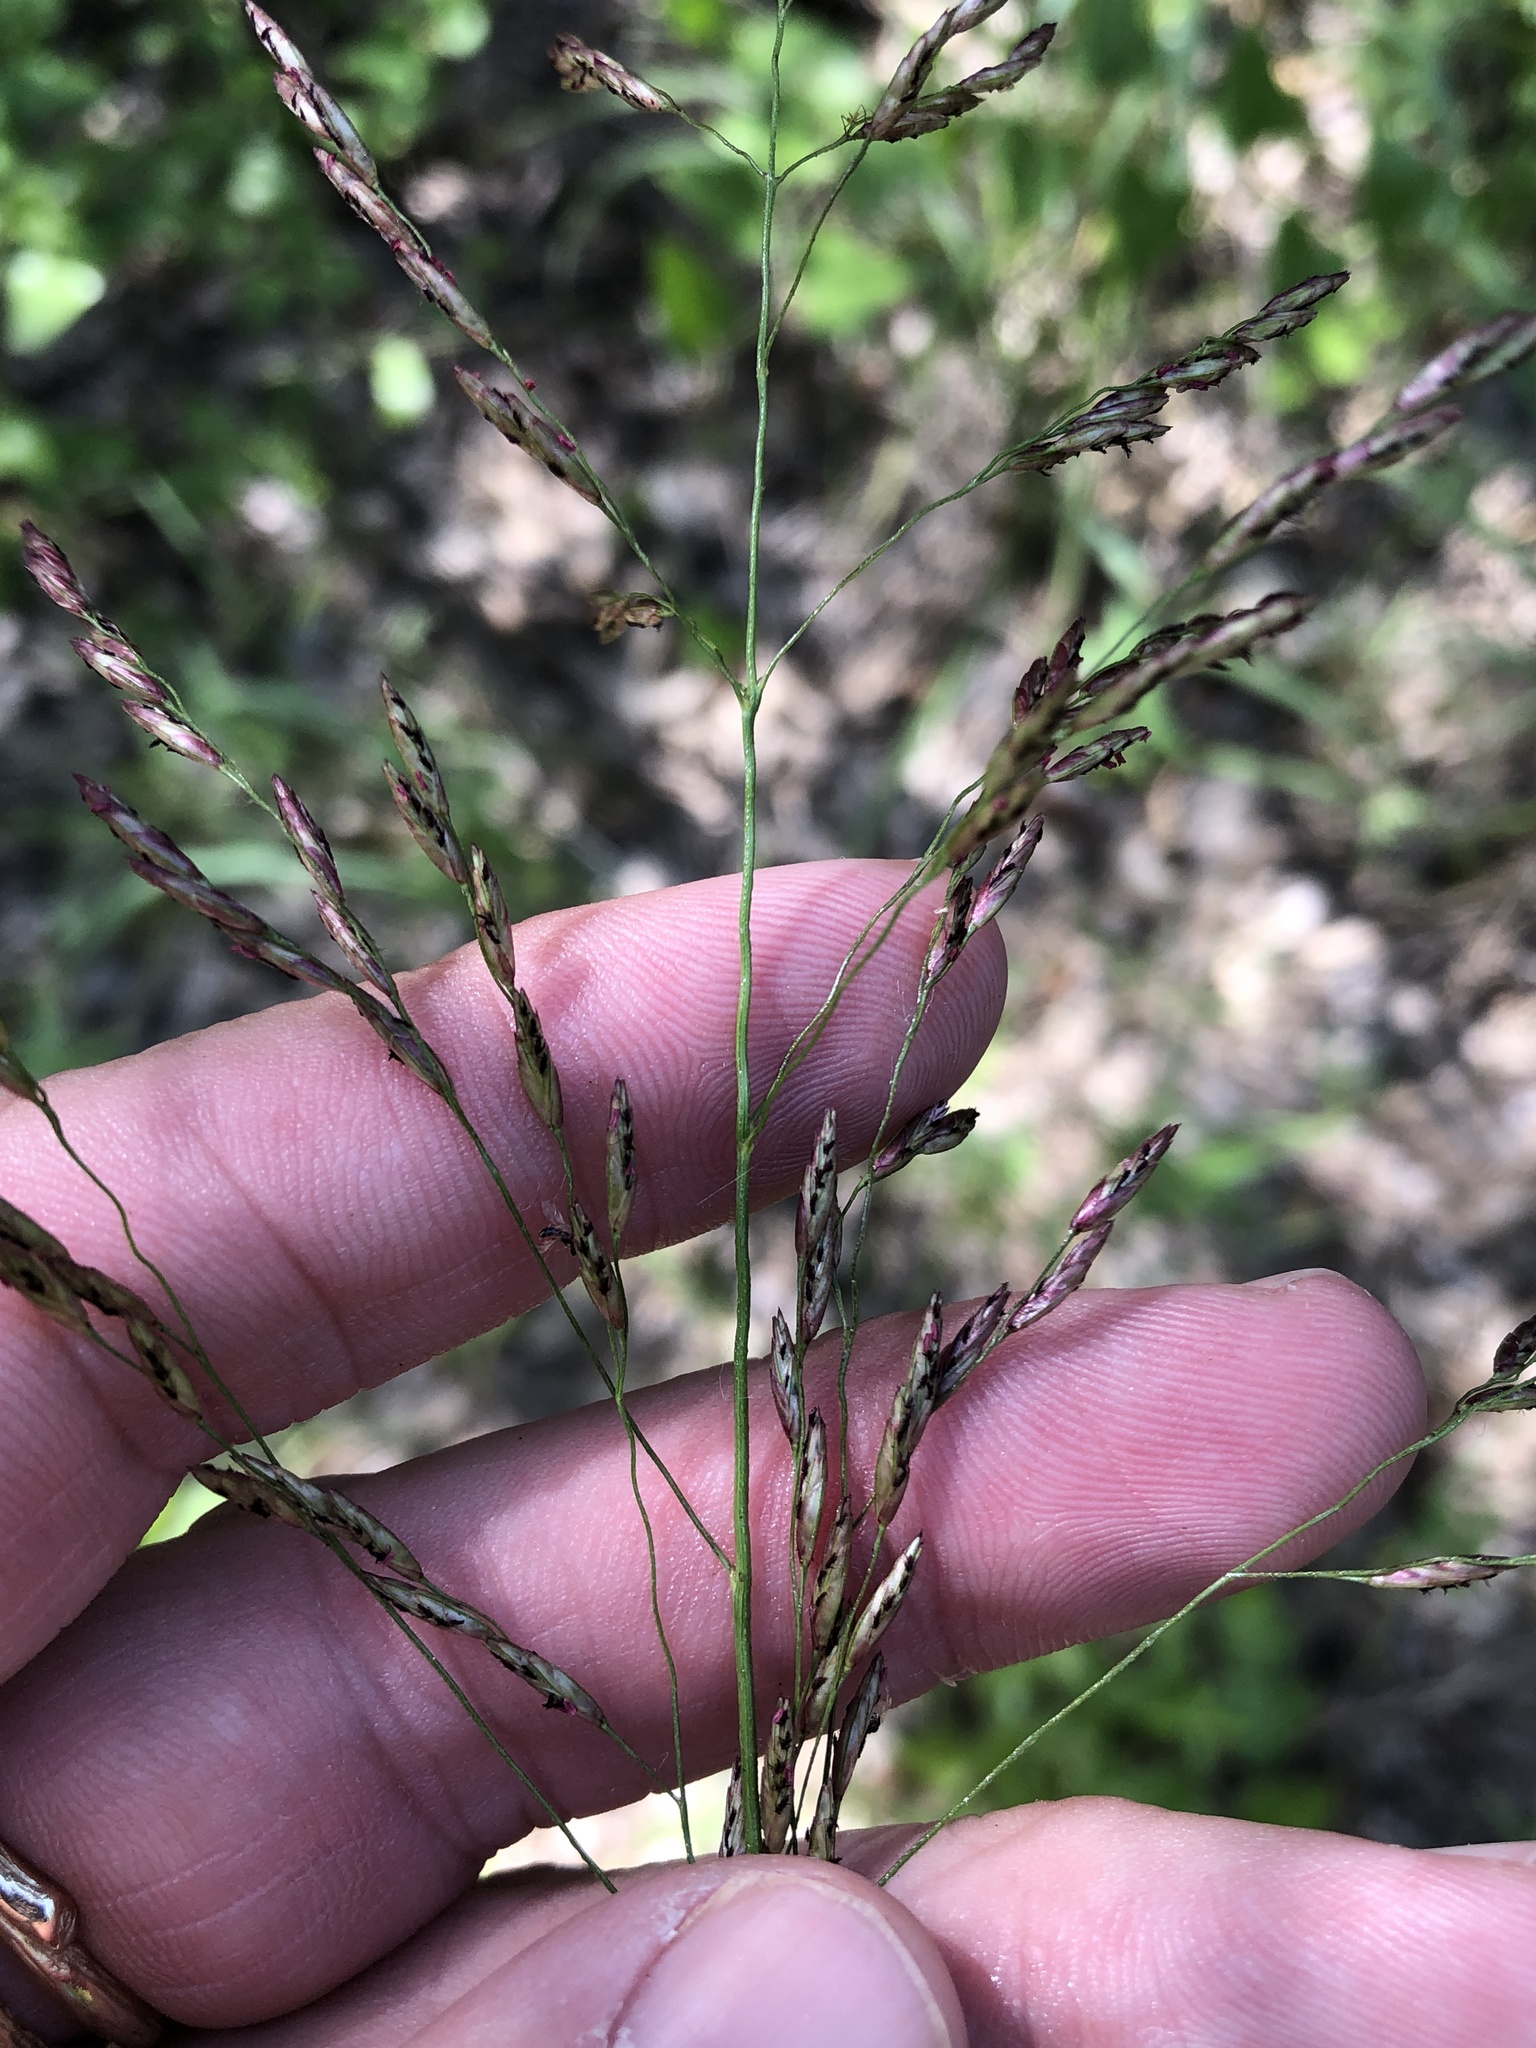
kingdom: Plantae
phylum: Tracheophyta
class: Liliopsida
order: Poales
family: Poaceae
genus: Tridens
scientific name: Tridens flavus
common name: Purpletop
